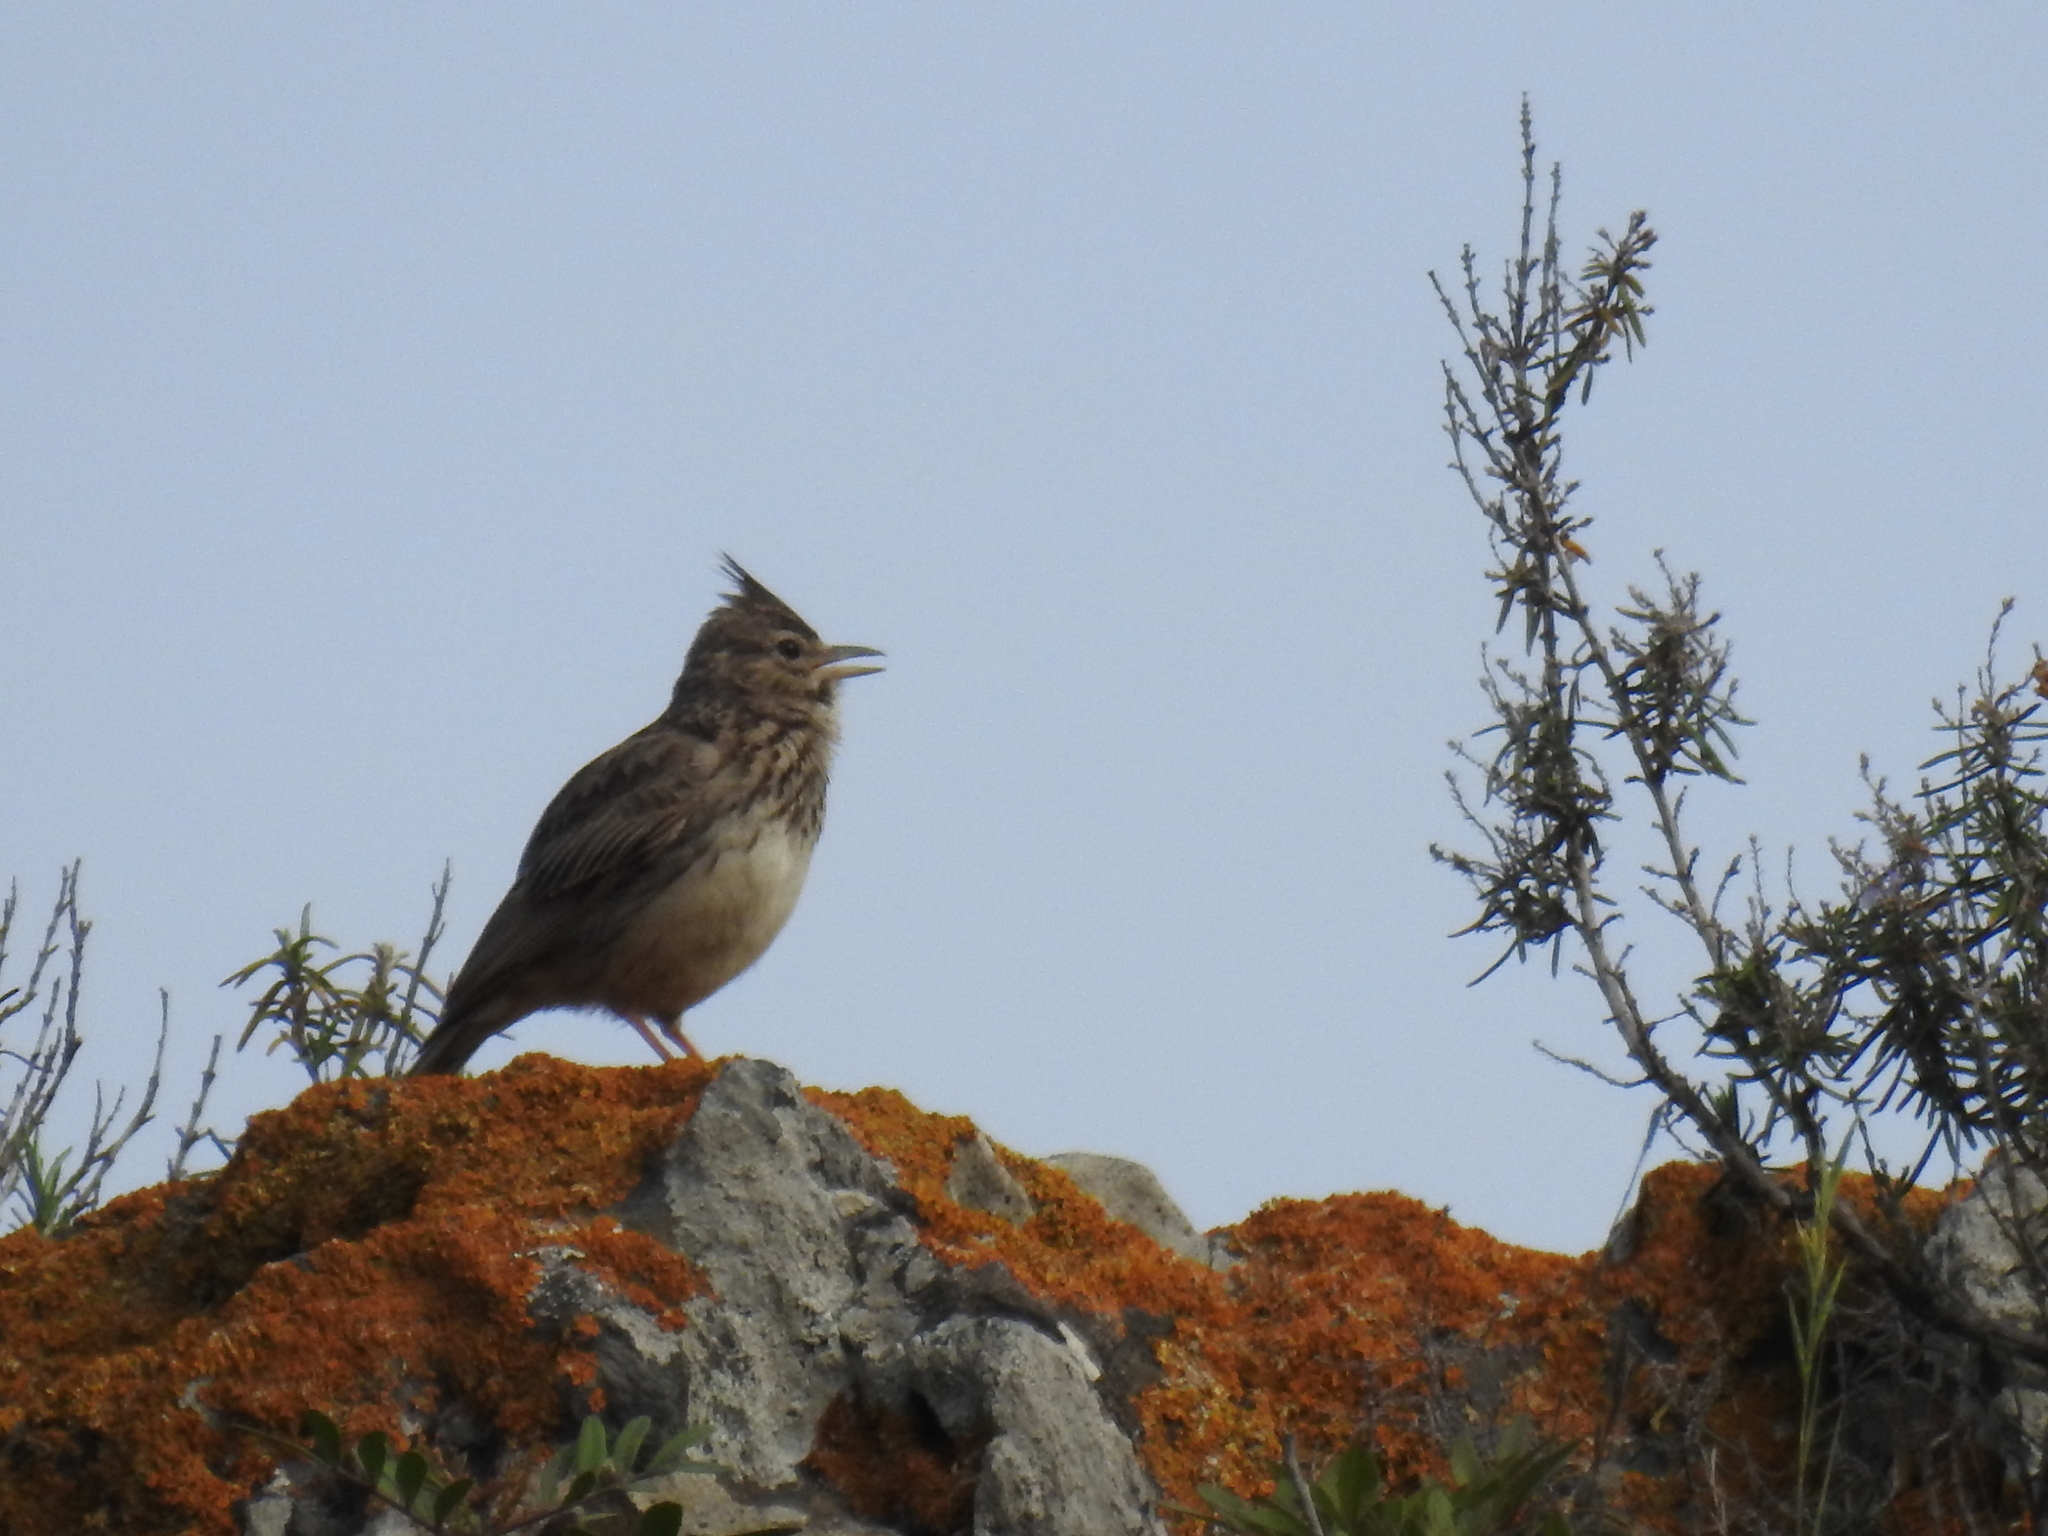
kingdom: Animalia
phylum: Chordata
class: Aves
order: Passeriformes
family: Alaudidae
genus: Galerida
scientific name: Galerida theklae
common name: Thekla lark
